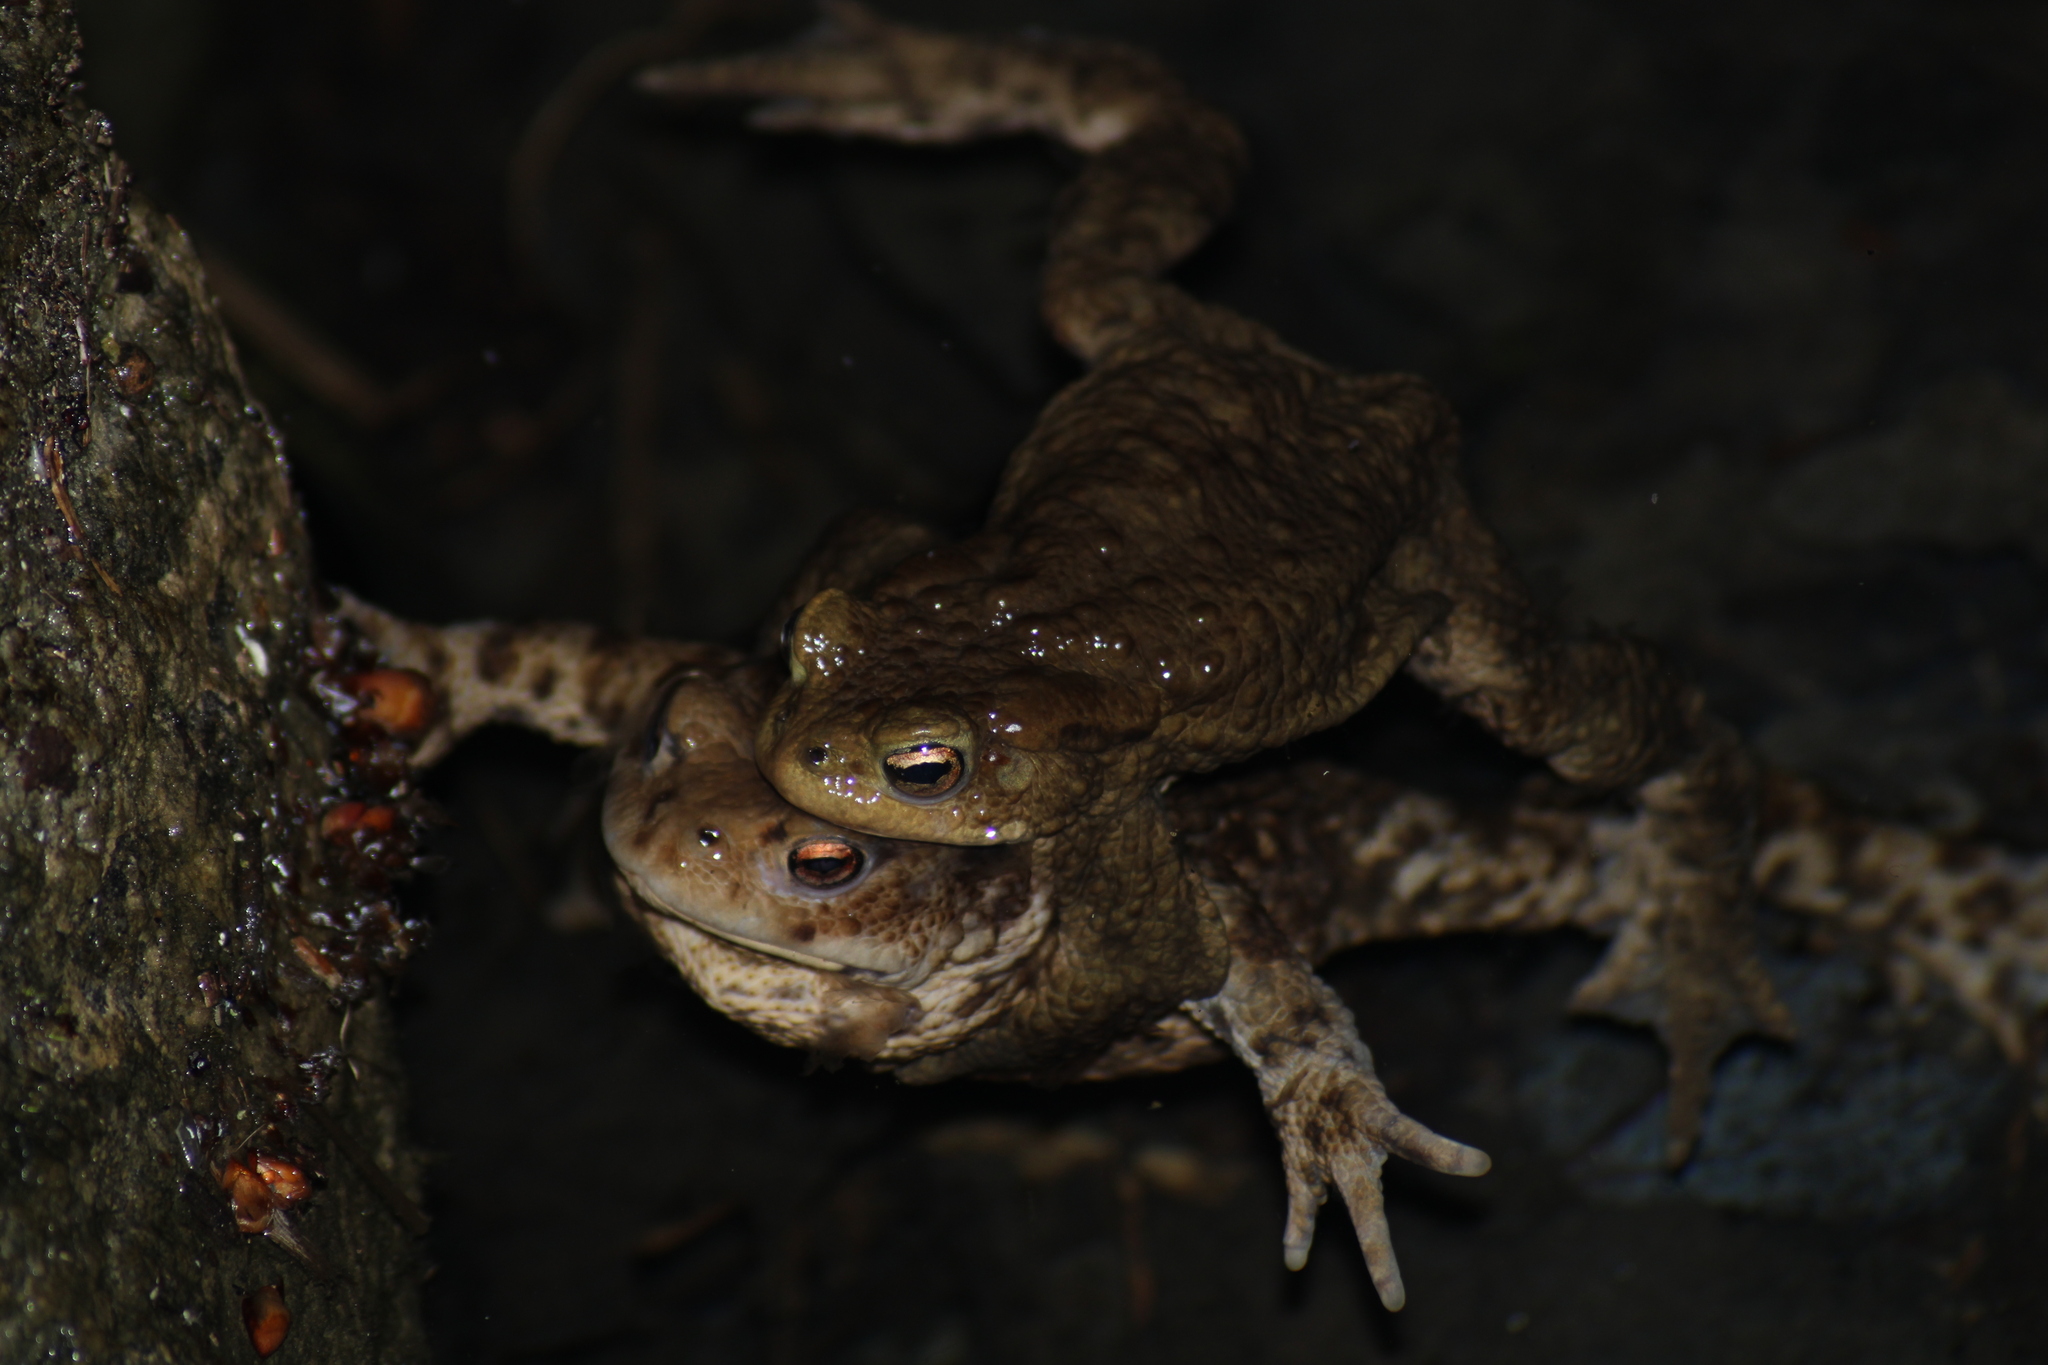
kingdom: Animalia
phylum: Chordata
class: Amphibia
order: Anura
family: Bufonidae
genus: Bufo
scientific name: Bufo bufo
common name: Common toad
